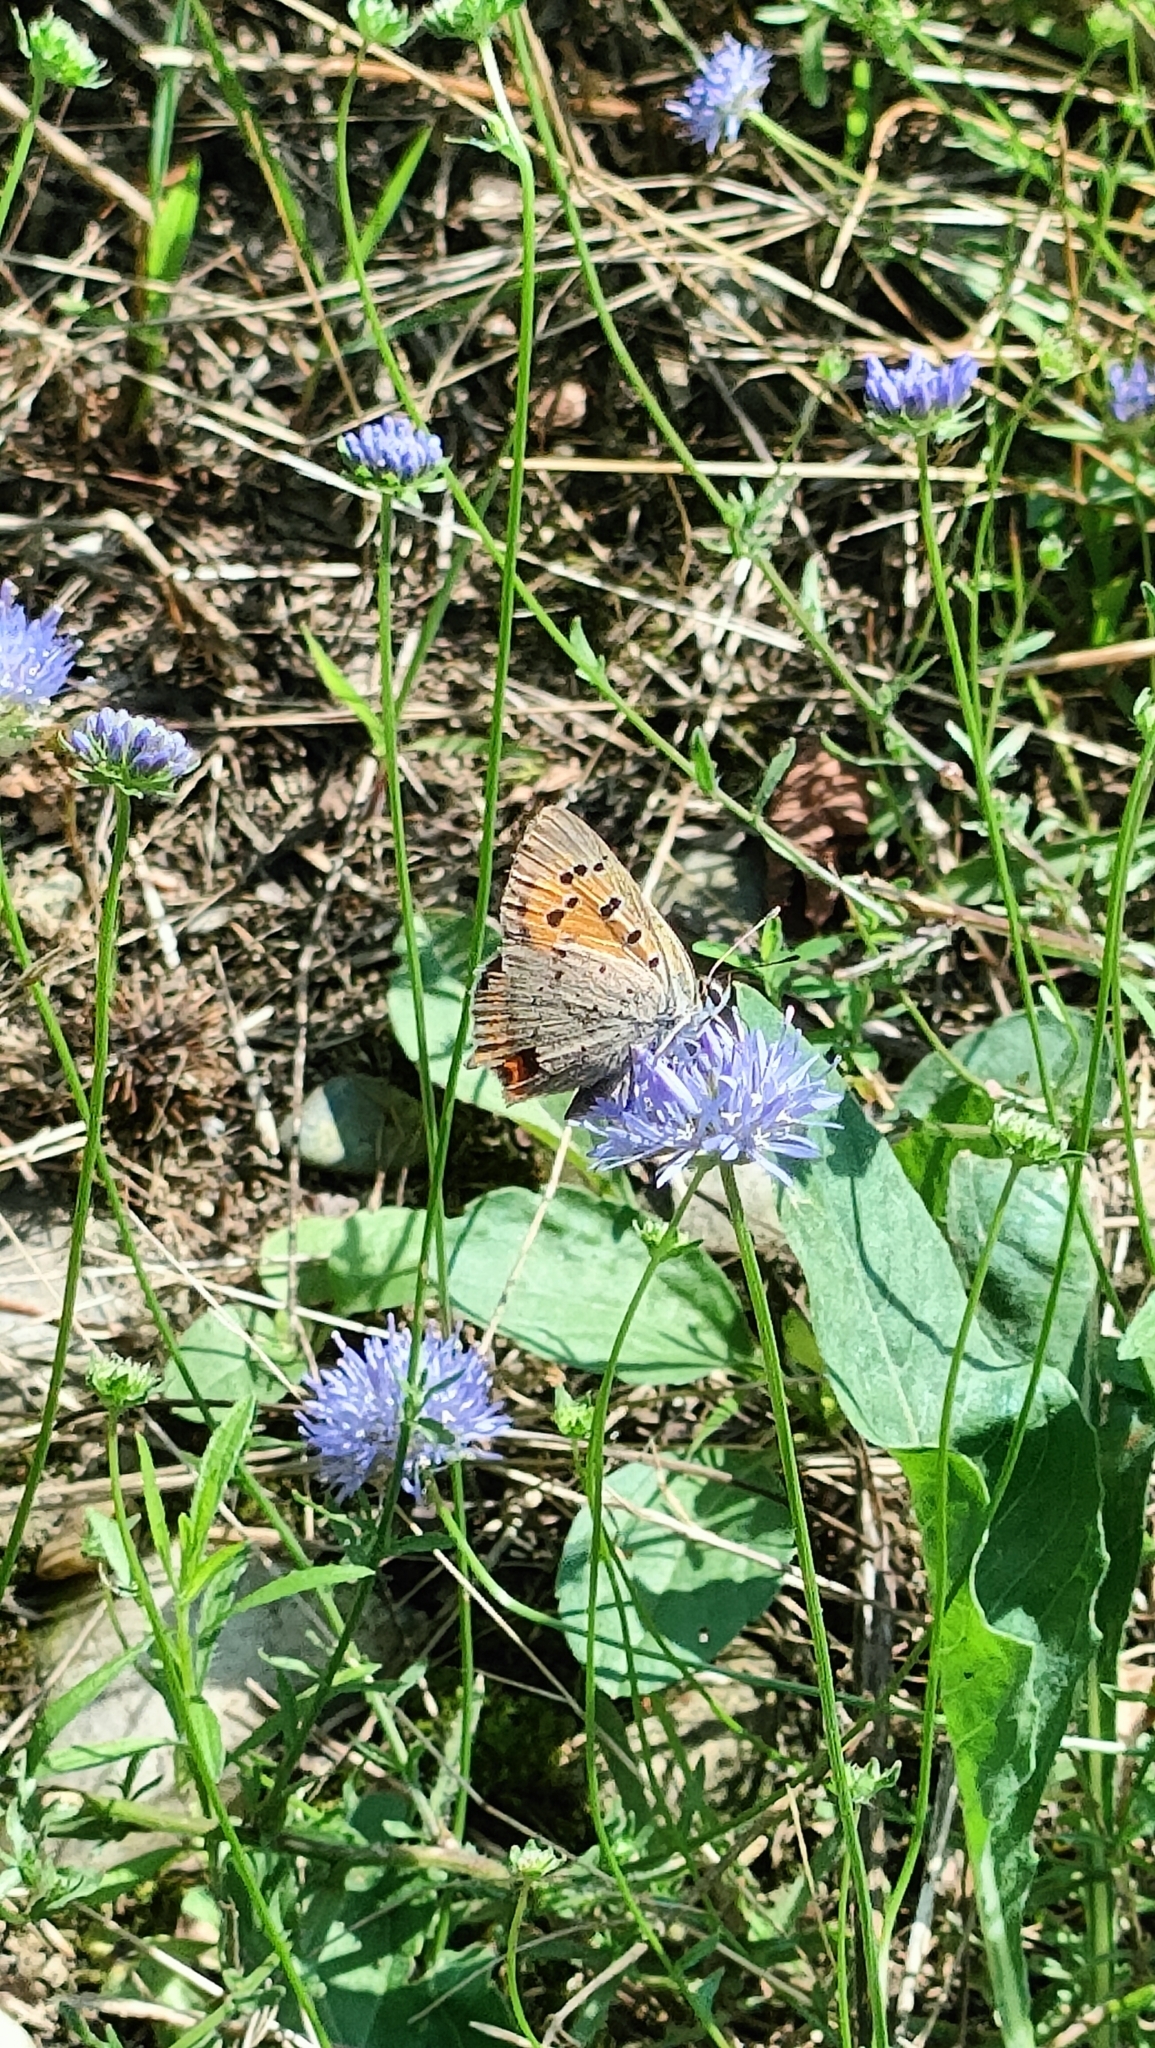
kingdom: Animalia
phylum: Arthropoda
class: Insecta
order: Lepidoptera
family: Lycaenidae
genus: Lycaena
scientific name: Lycaena phlaeas
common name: Small copper
